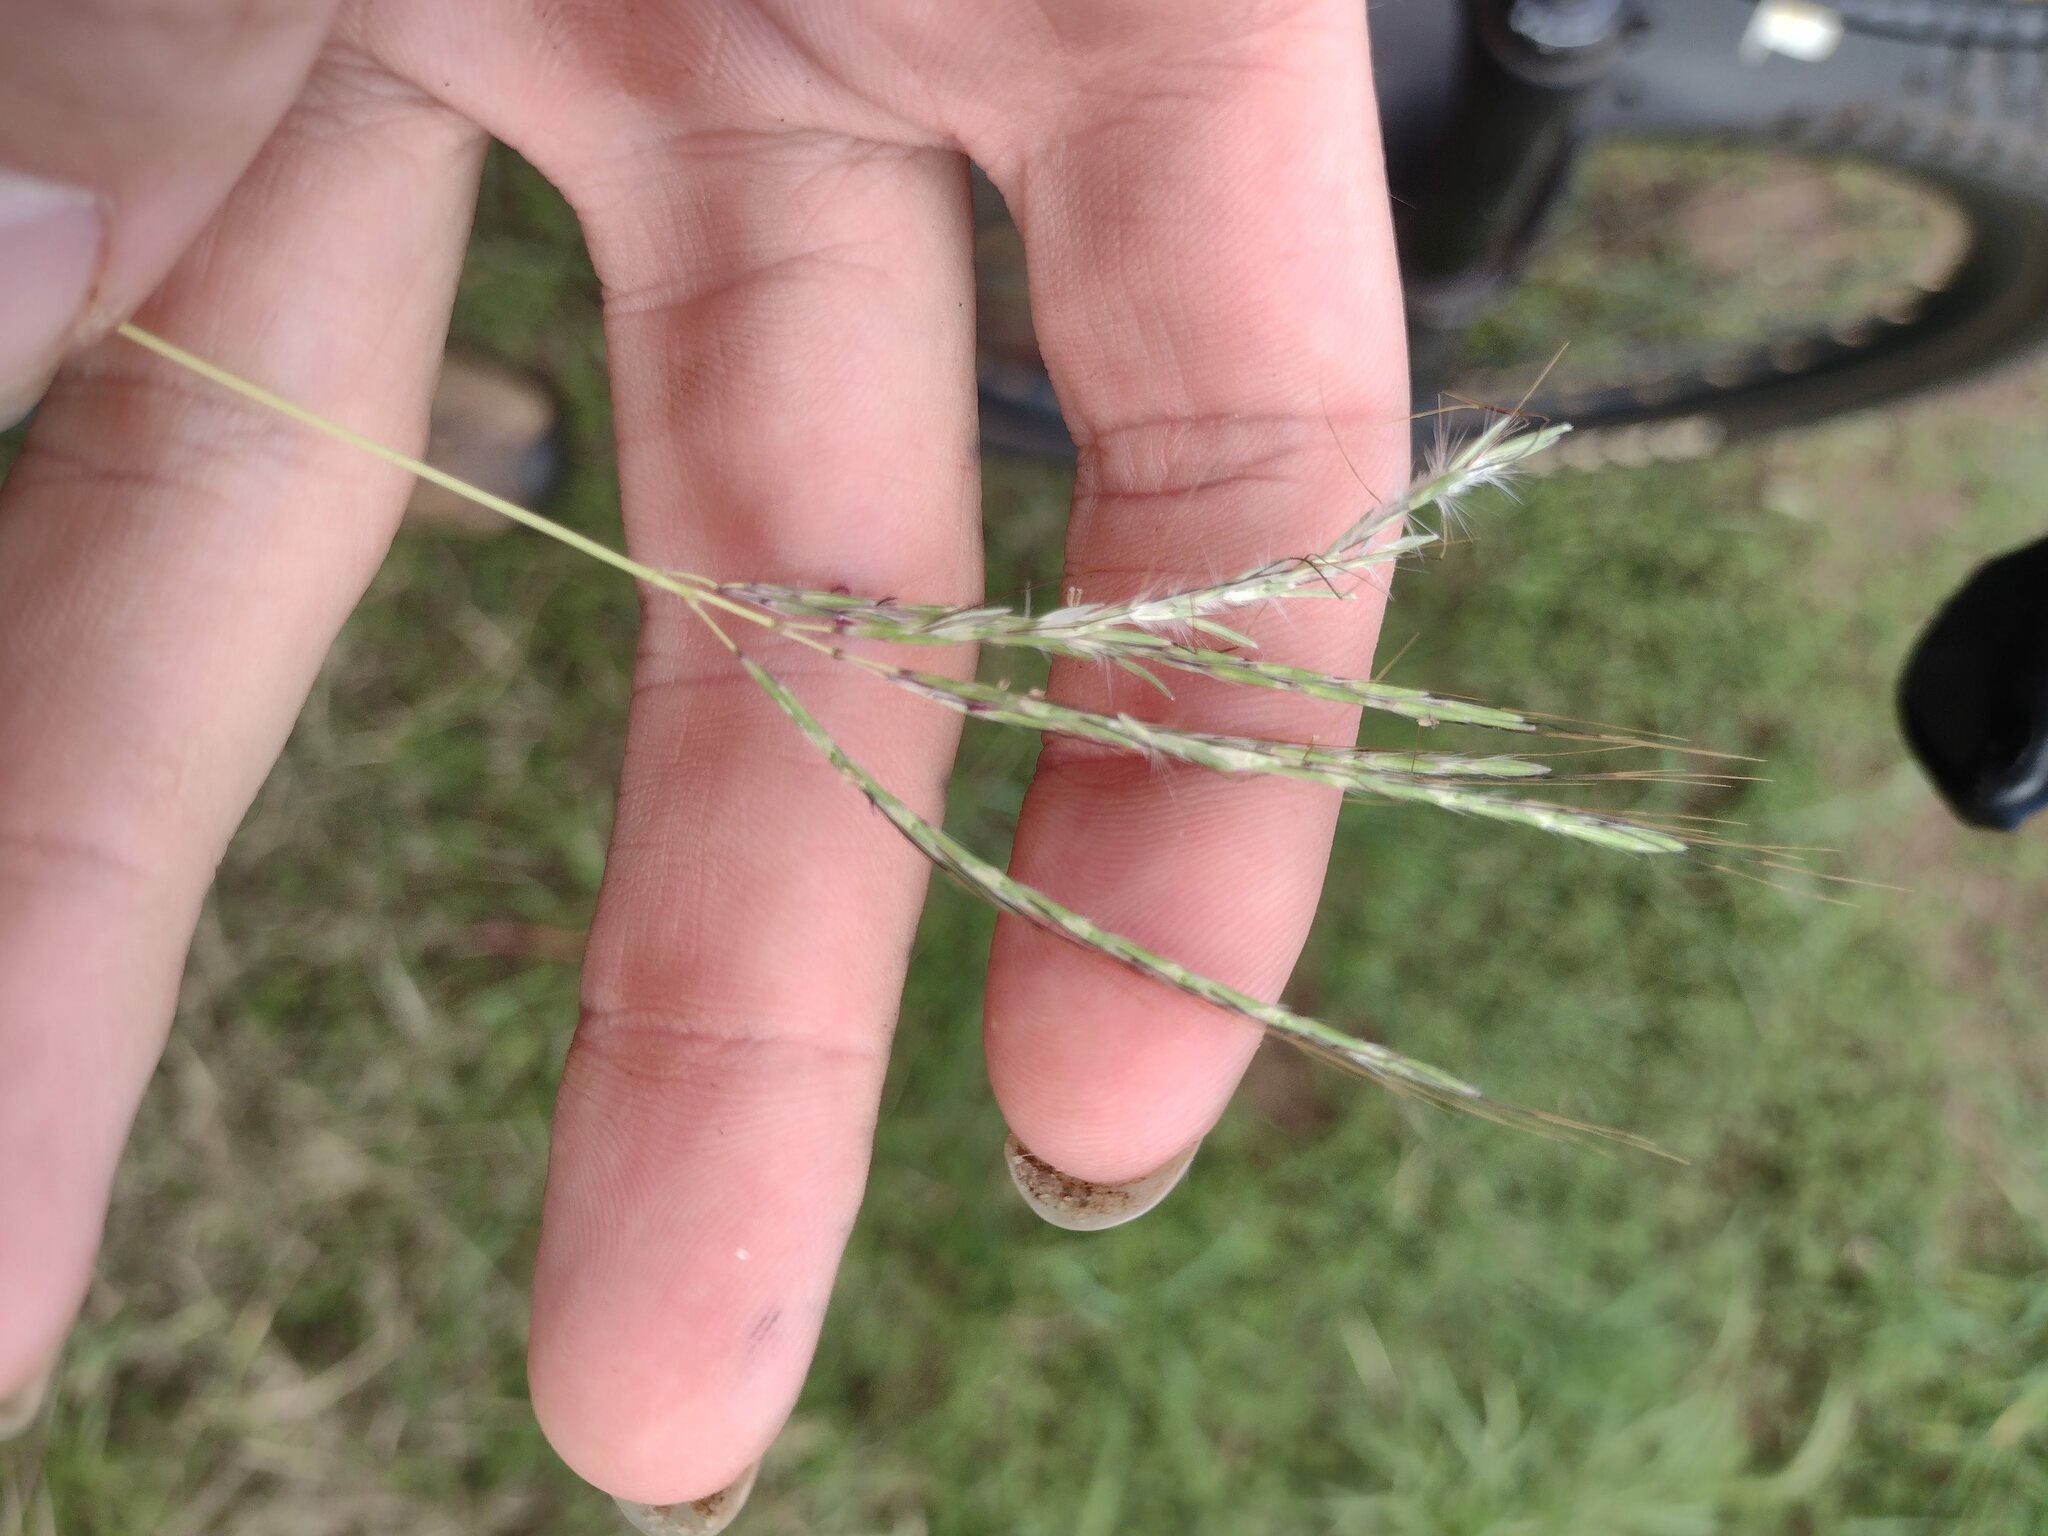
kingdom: Plantae
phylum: Tracheophyta
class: Liliopsida
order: Poales
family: Poaceae
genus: Bothriochloa
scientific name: Bothriochloa pertusa
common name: Pitted beardgrass
